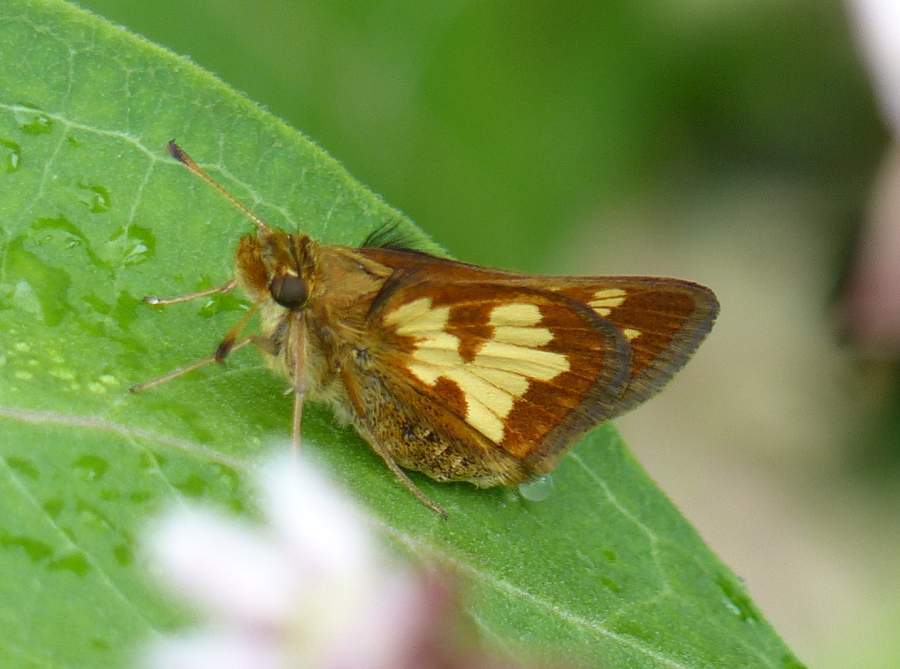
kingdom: Animalia
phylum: Arthropoda
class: Insecta
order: Lepidoptera
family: Hesperiidae
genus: Polites
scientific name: Polites coras
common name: Peck's skipper
